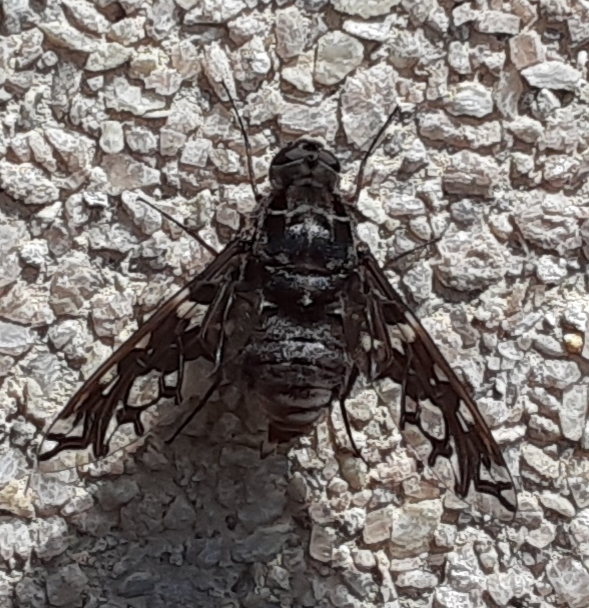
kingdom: Animalia
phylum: Arthropoda
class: Insecta
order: Diptera
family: Bombyliidae
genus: Xenox
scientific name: Xenox tigrinus
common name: Tiger bee fly
